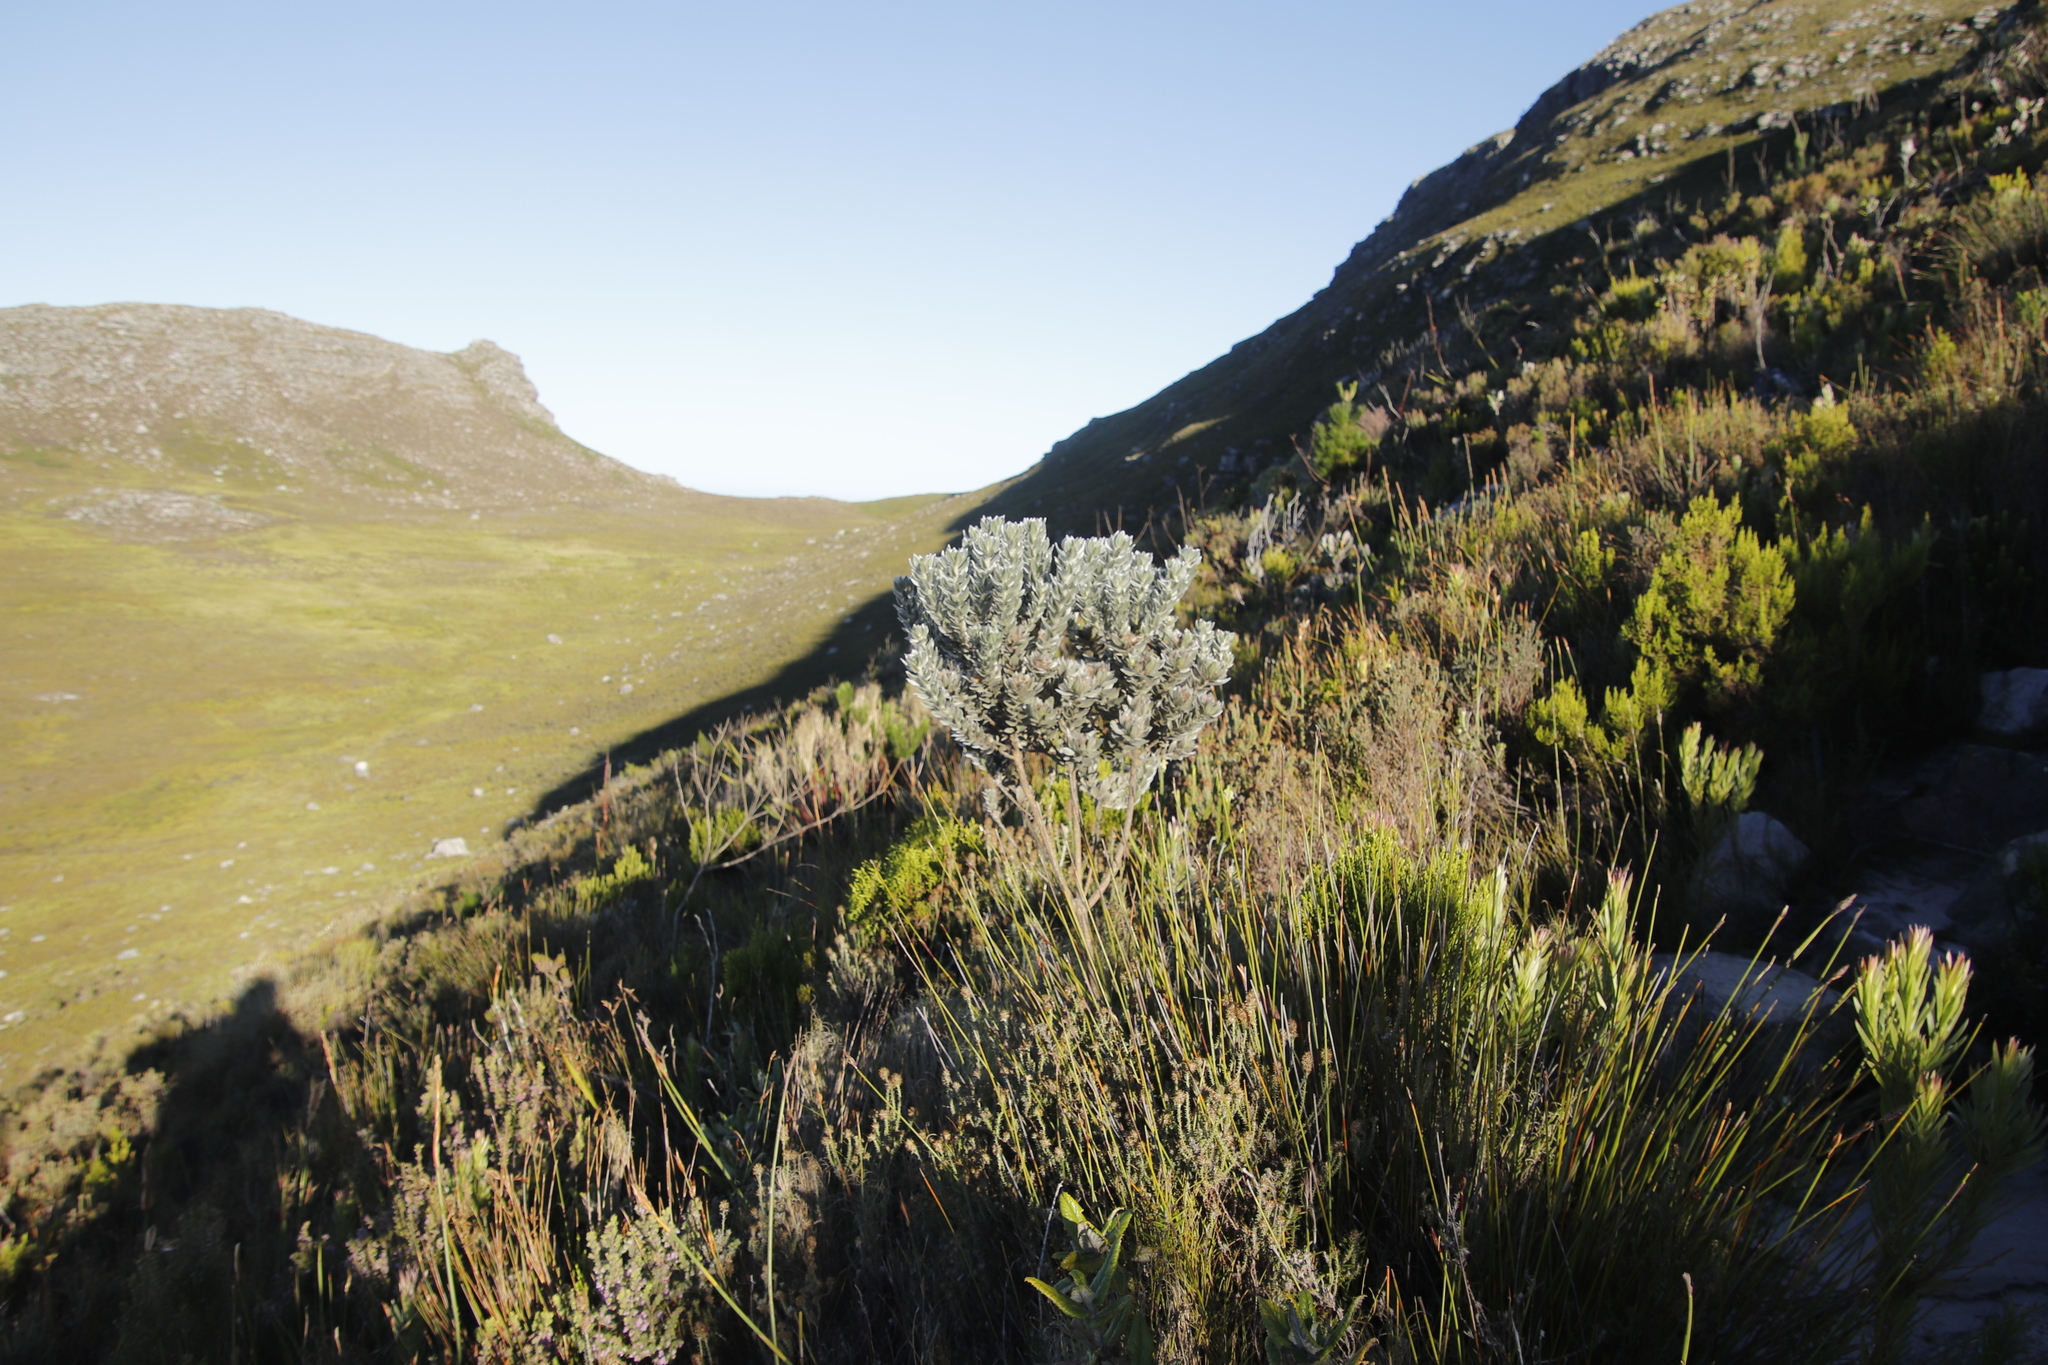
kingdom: Plantae
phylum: Tracheophyta
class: Magnoliopsida
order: Fabales
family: Fabaceae
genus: Xiphotheca
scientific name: Xiphotheca fruticosa
